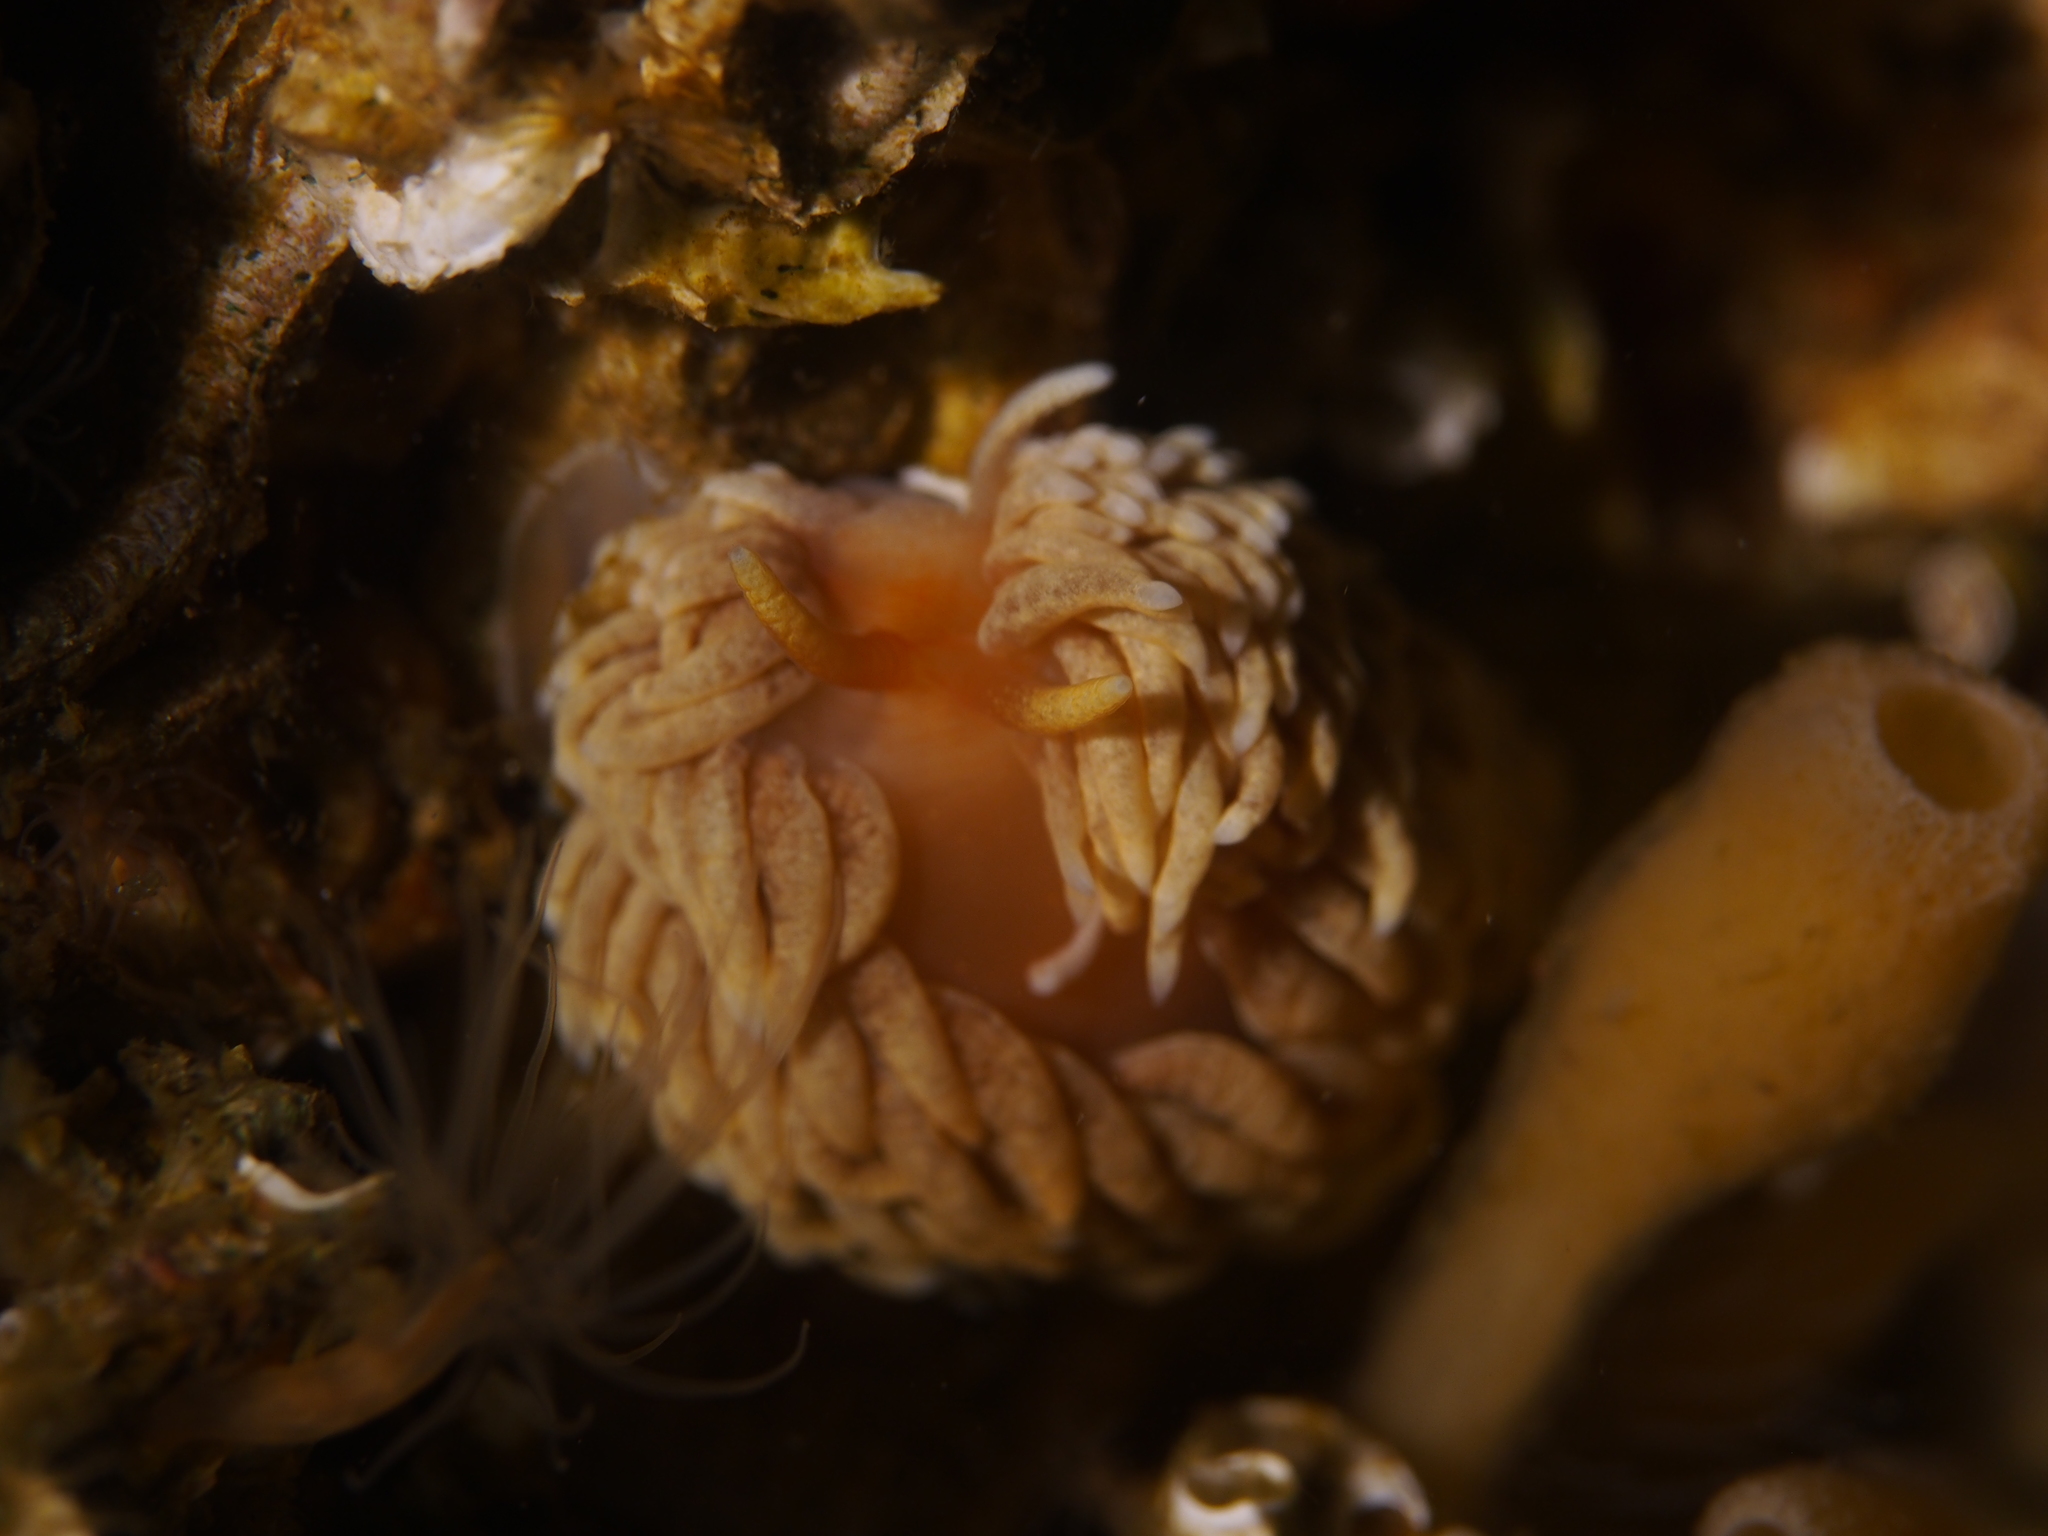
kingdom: Animalia
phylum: Mollusca
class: Gastropoda
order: Nudibranchia
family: Aeolidiidae
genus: Aeolidiella
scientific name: Aeolidiella glauca
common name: Orange-brown aeolid
